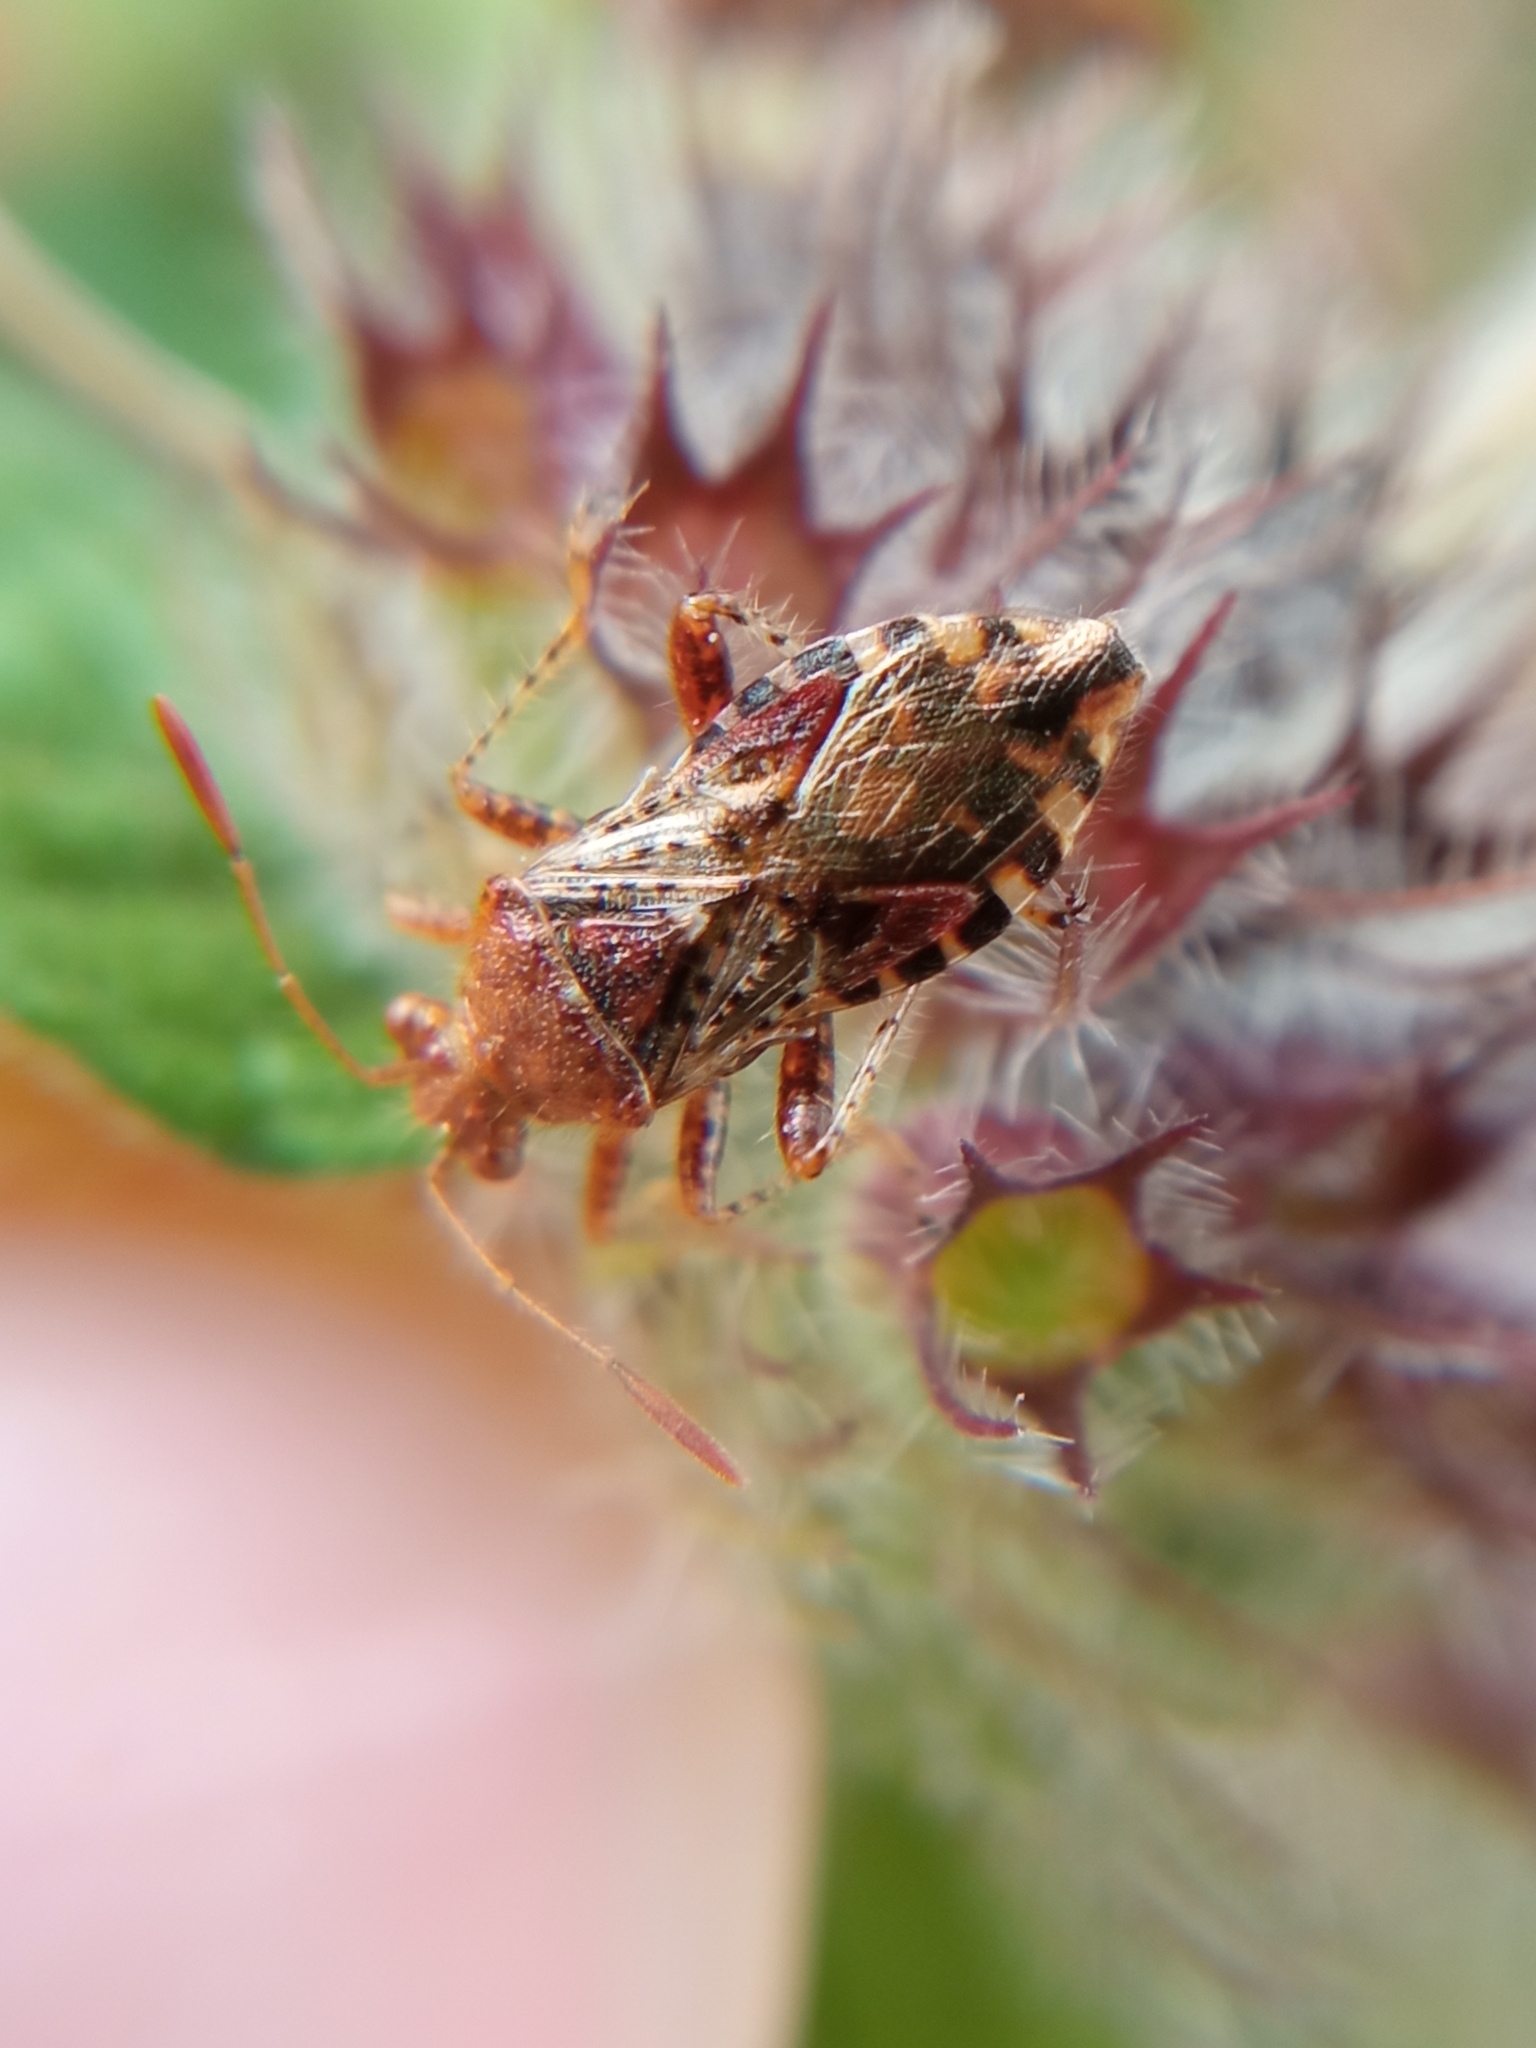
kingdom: Animalia
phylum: Arthropoda
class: Insecta
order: Hemiptera
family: Rhopalidae
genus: Rhopalus
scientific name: Rhopalus subrufus
